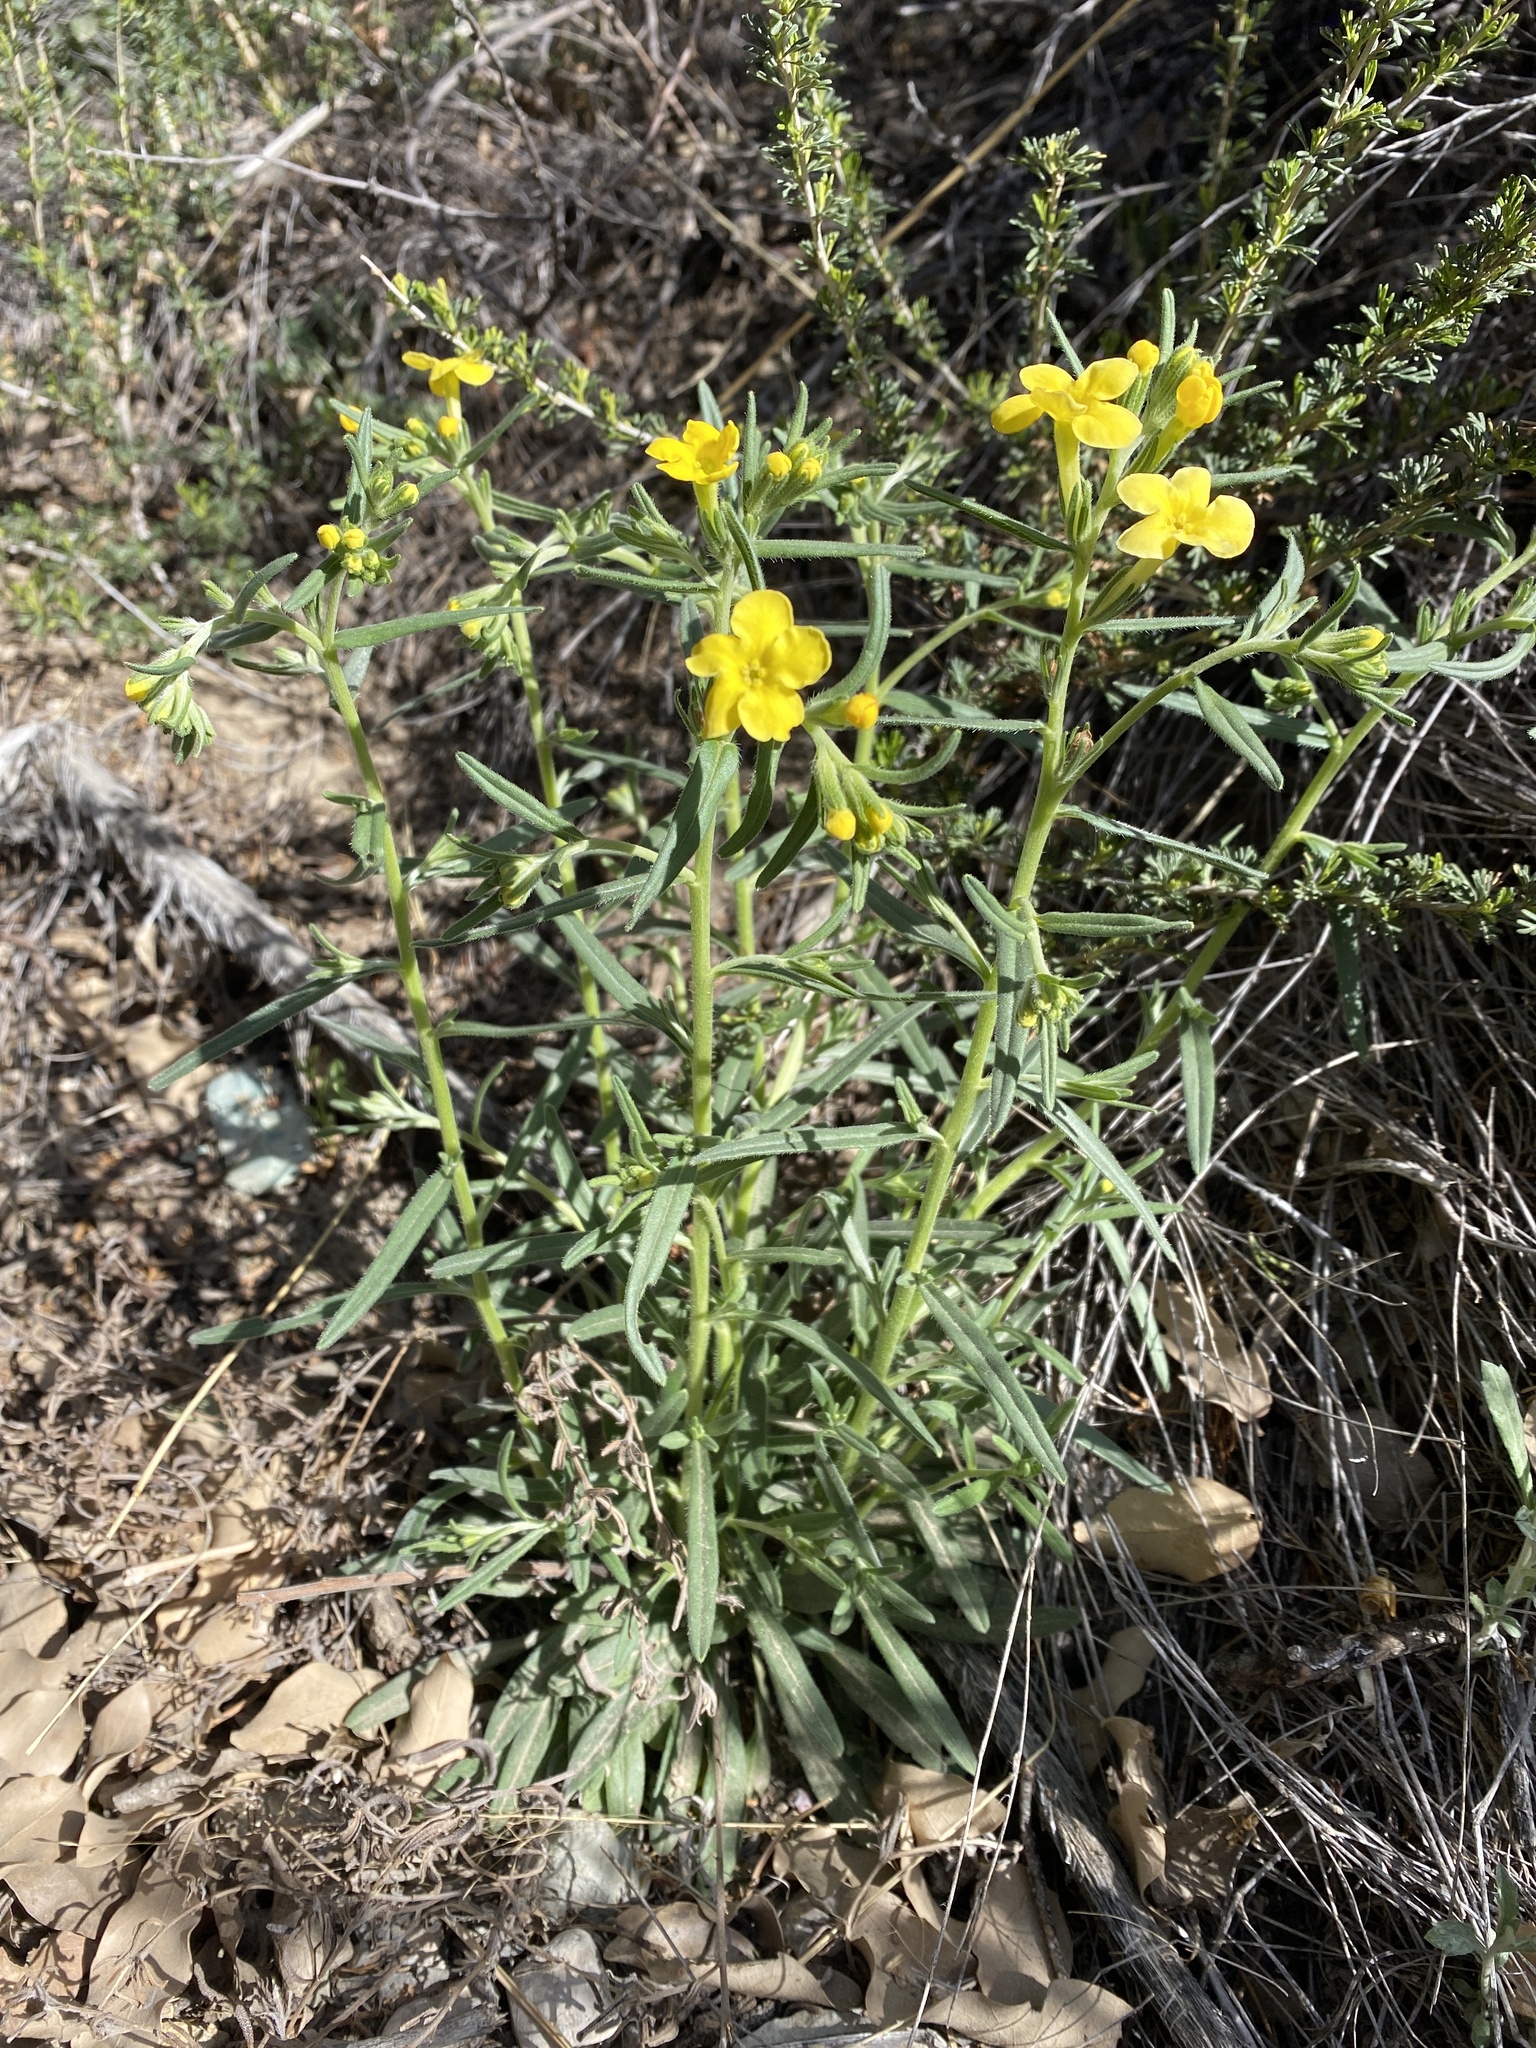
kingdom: Plantae
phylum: Tracheophyta
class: Magnoliopsida
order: Boraginales
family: Boraginaceae
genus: Lithospermum
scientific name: Lithospermum mirabile
